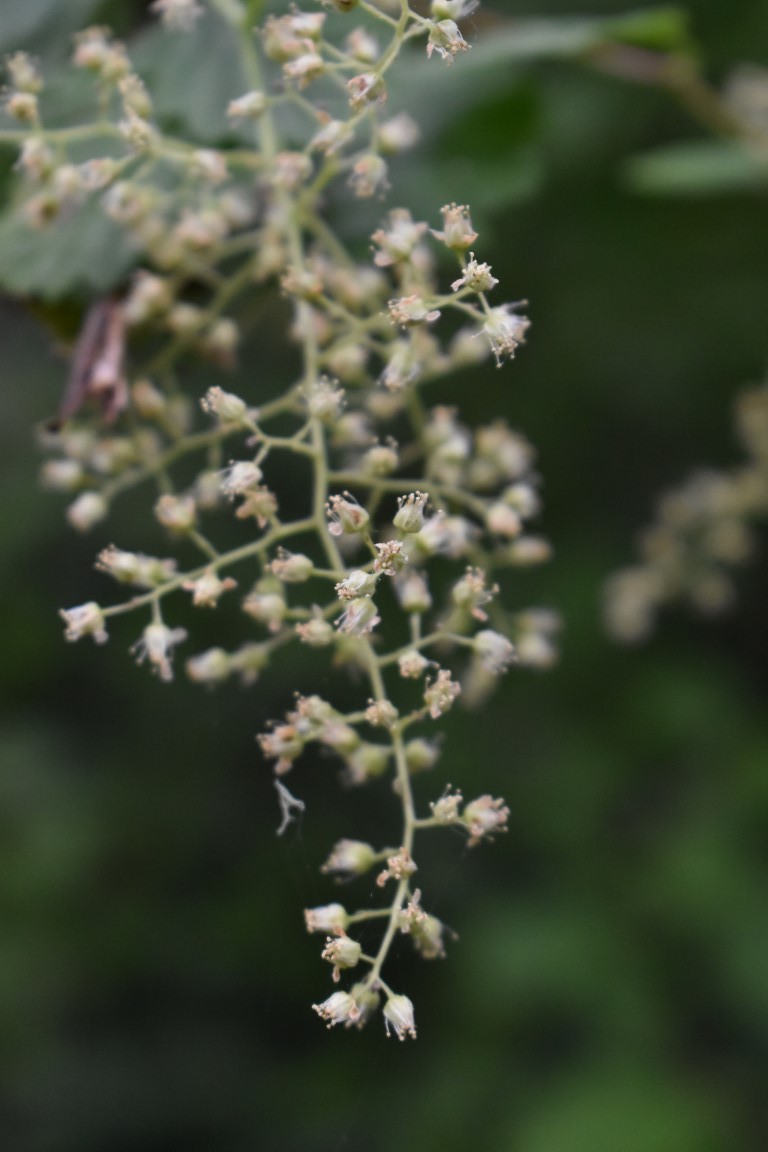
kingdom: Plantae
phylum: Tracheophyta
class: Magnoliopsida
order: Rosales
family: Rosaceae
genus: Holodiscus
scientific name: Holodiscus discolor
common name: Oceanspray
